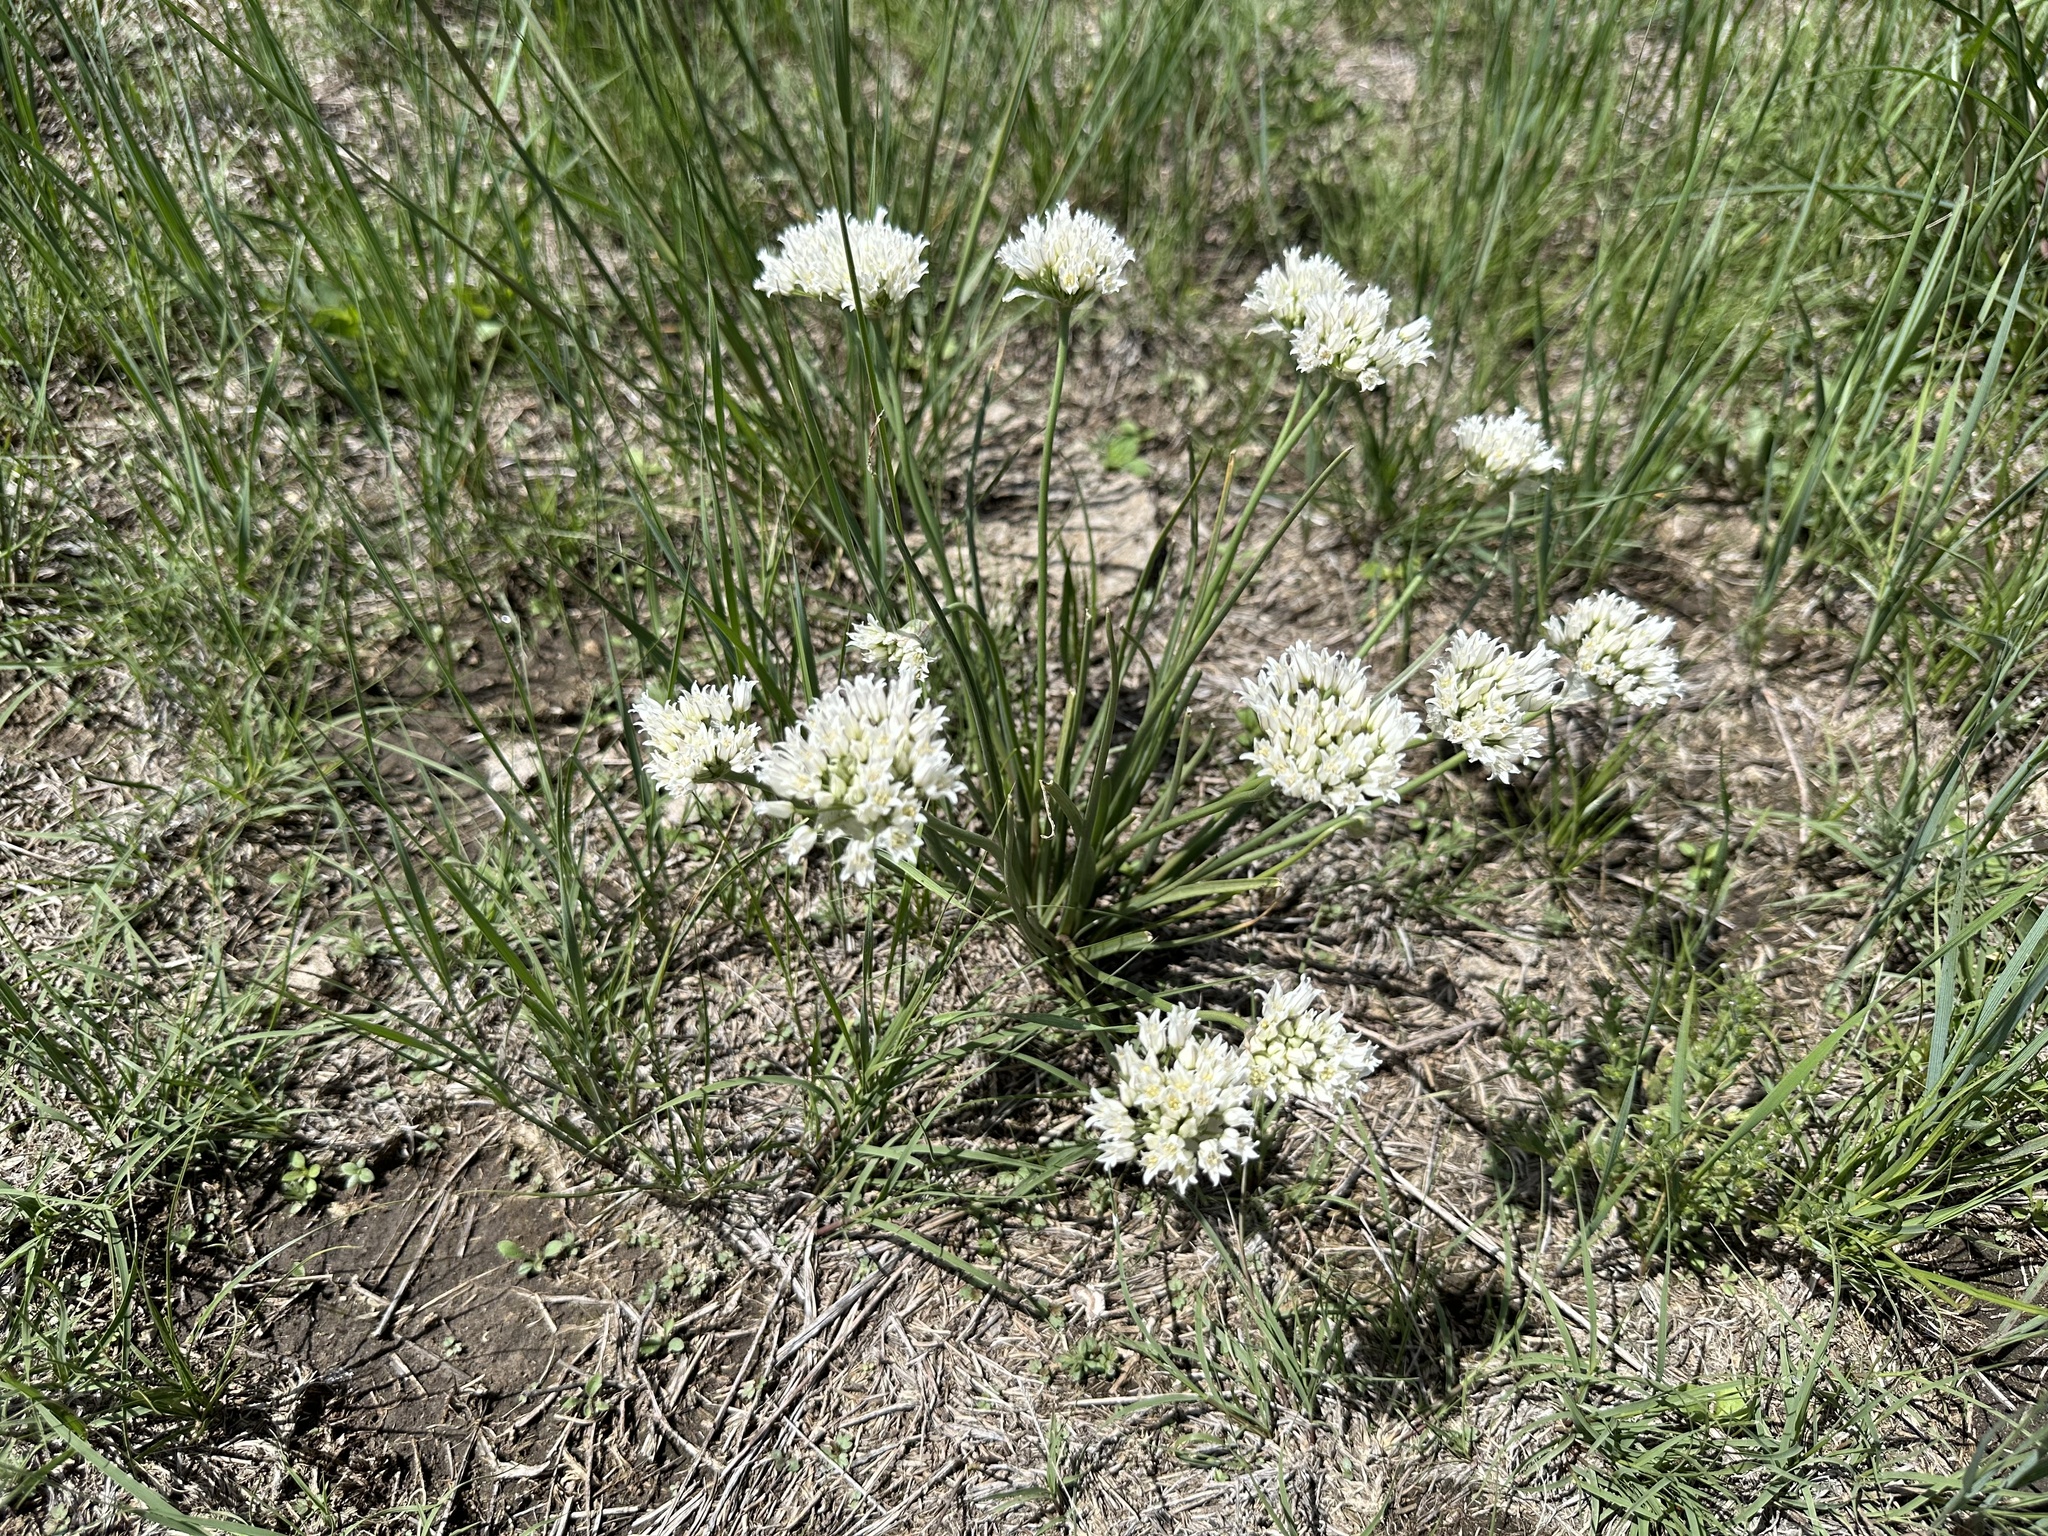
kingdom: Plantae
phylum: Tracheophyta
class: Liliopsida
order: Asparagales
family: Amaryllidaceae
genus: Allium
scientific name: Allium textile
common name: Prairie onion
